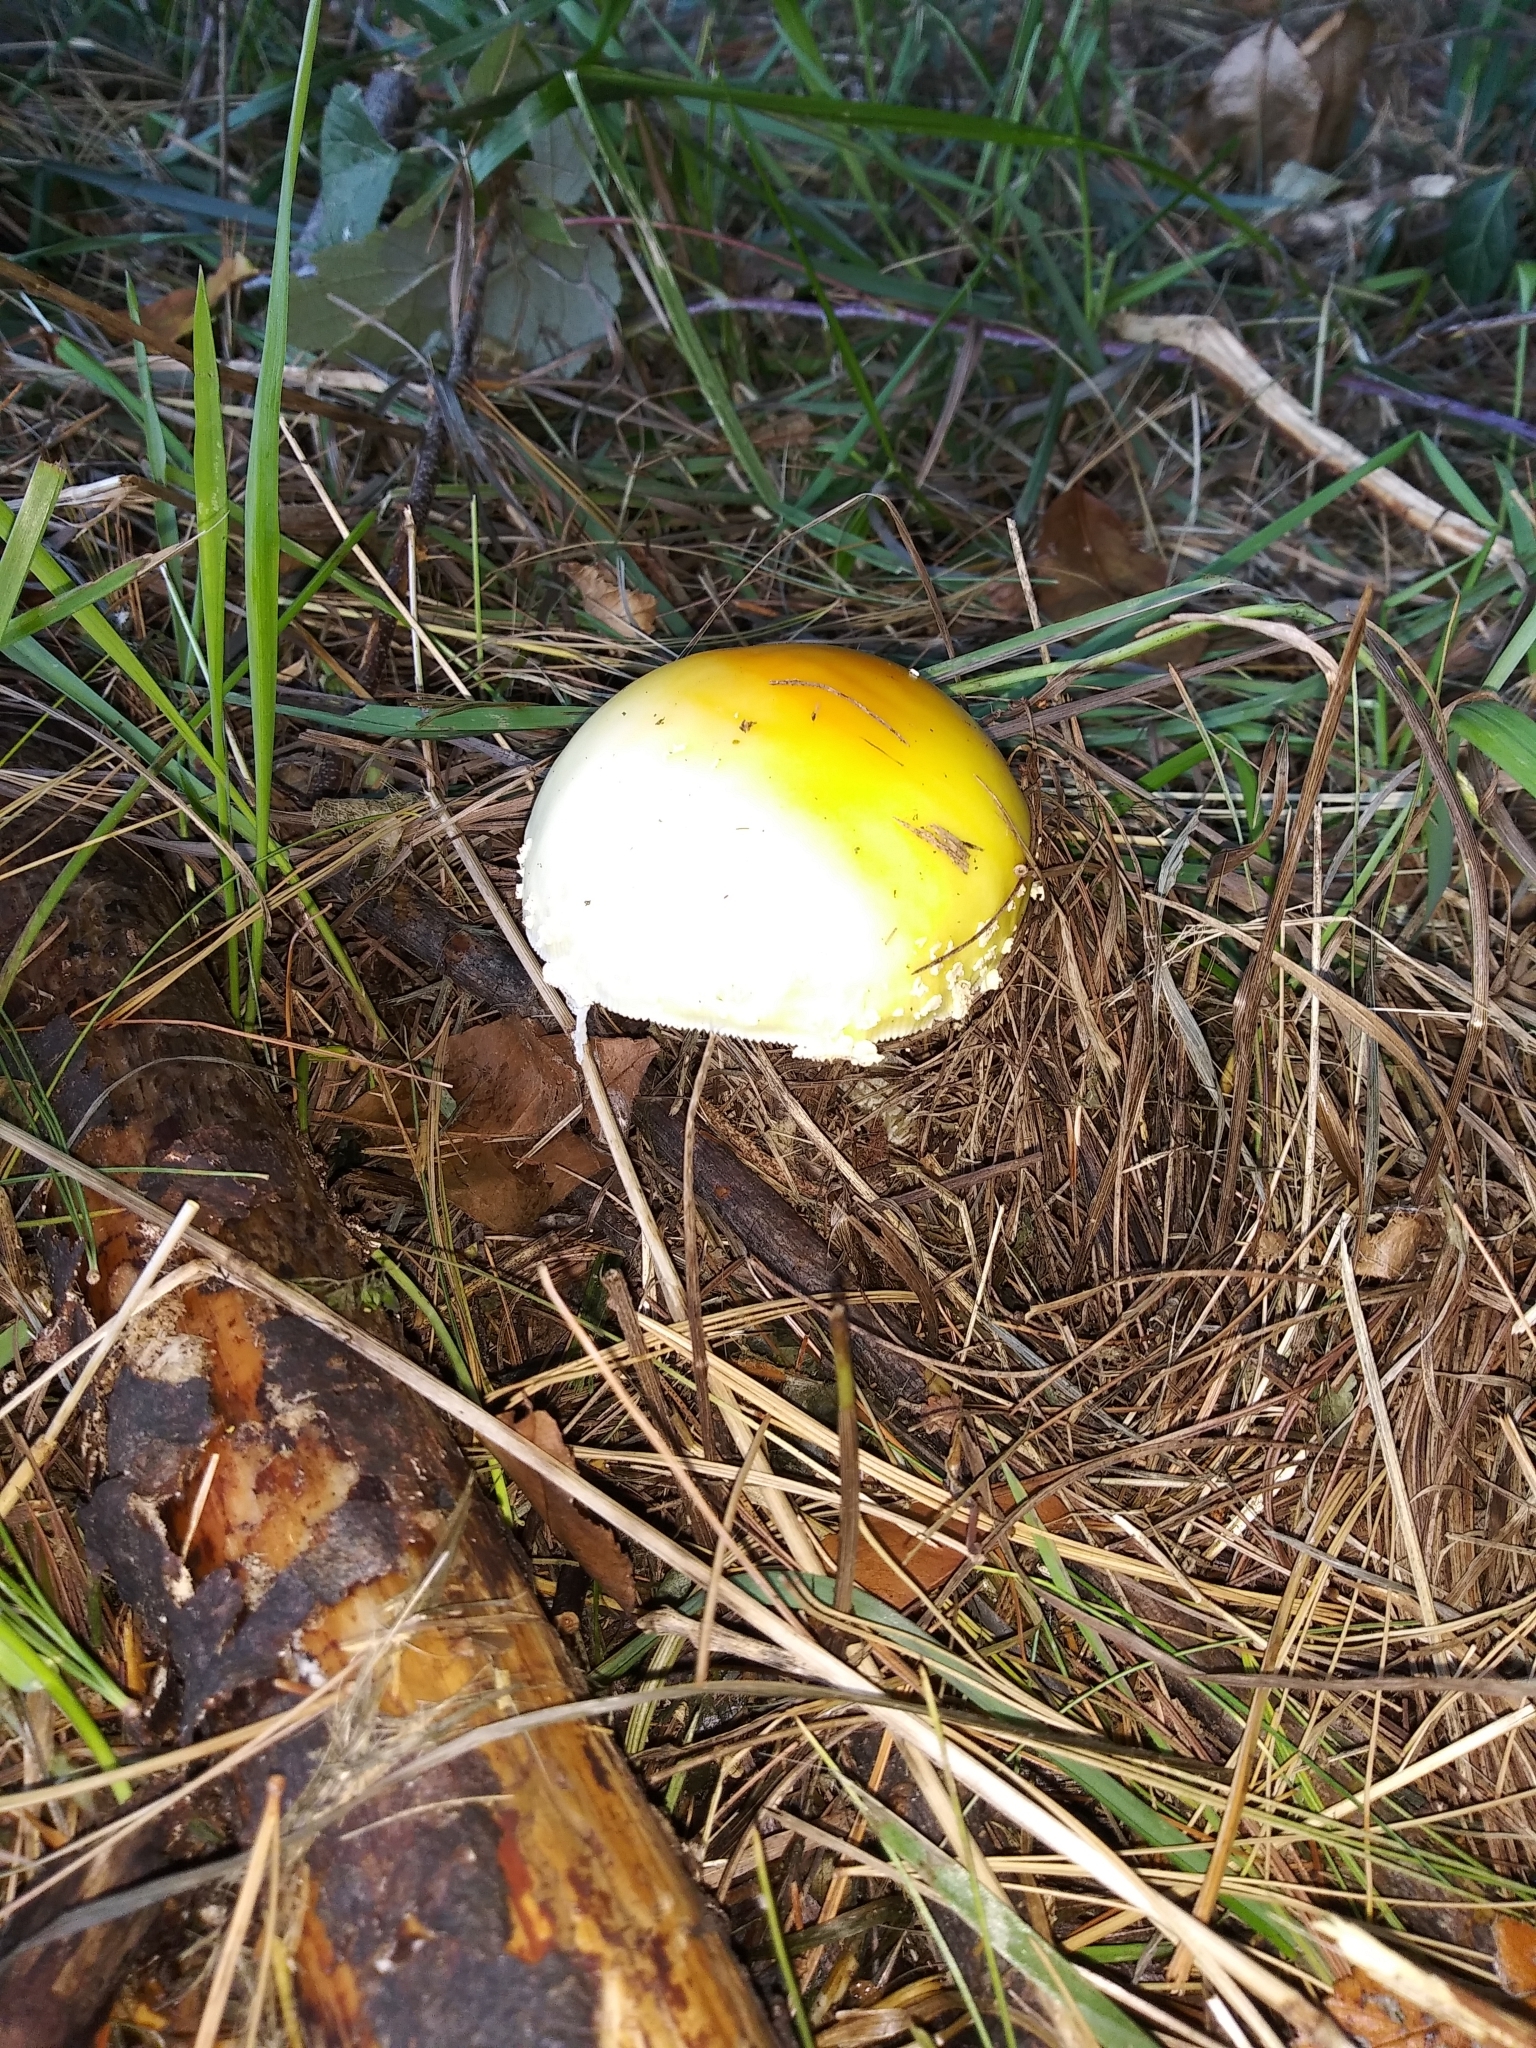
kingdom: Fungi
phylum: Basidiomycota
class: Agaricomycetes
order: Agaricales
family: Amanitaceae
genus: Amanita
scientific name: Amanita
